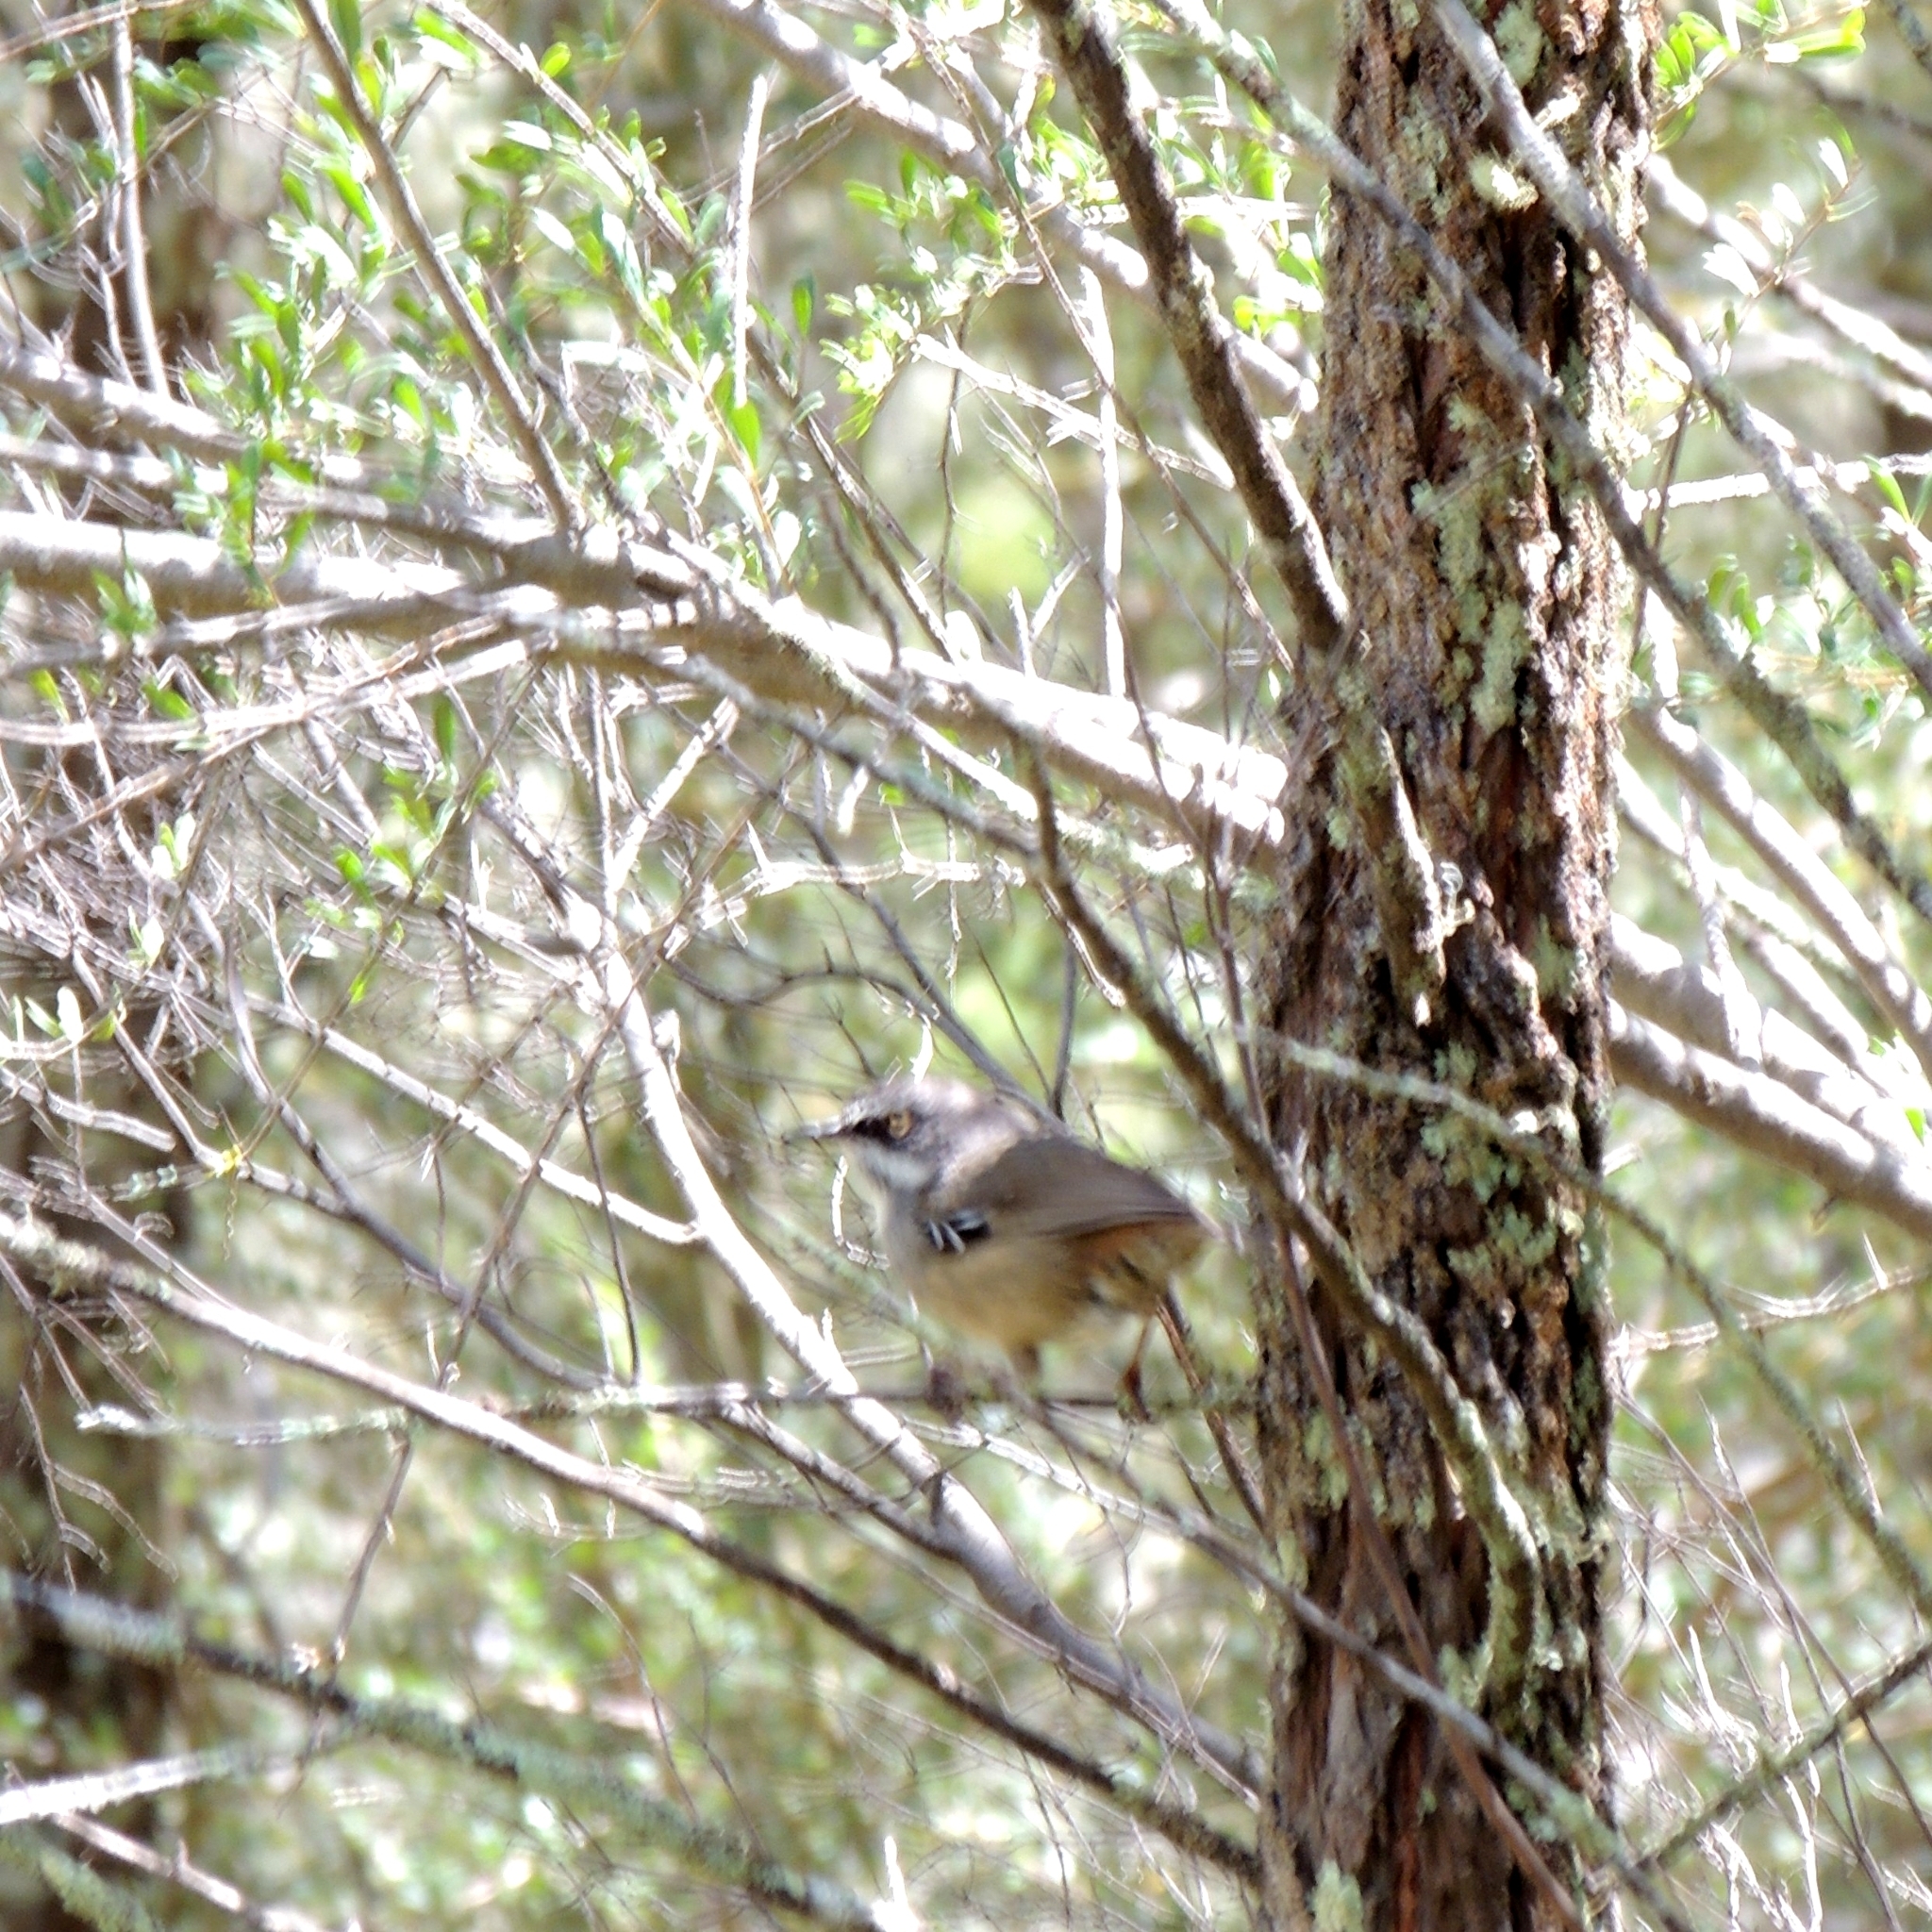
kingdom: Animalia
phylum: Chordata
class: Aves
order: Passeriformes
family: Acanthizidae
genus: Sericornis
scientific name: Sericornis frontalis
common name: White-browed scrubwren
